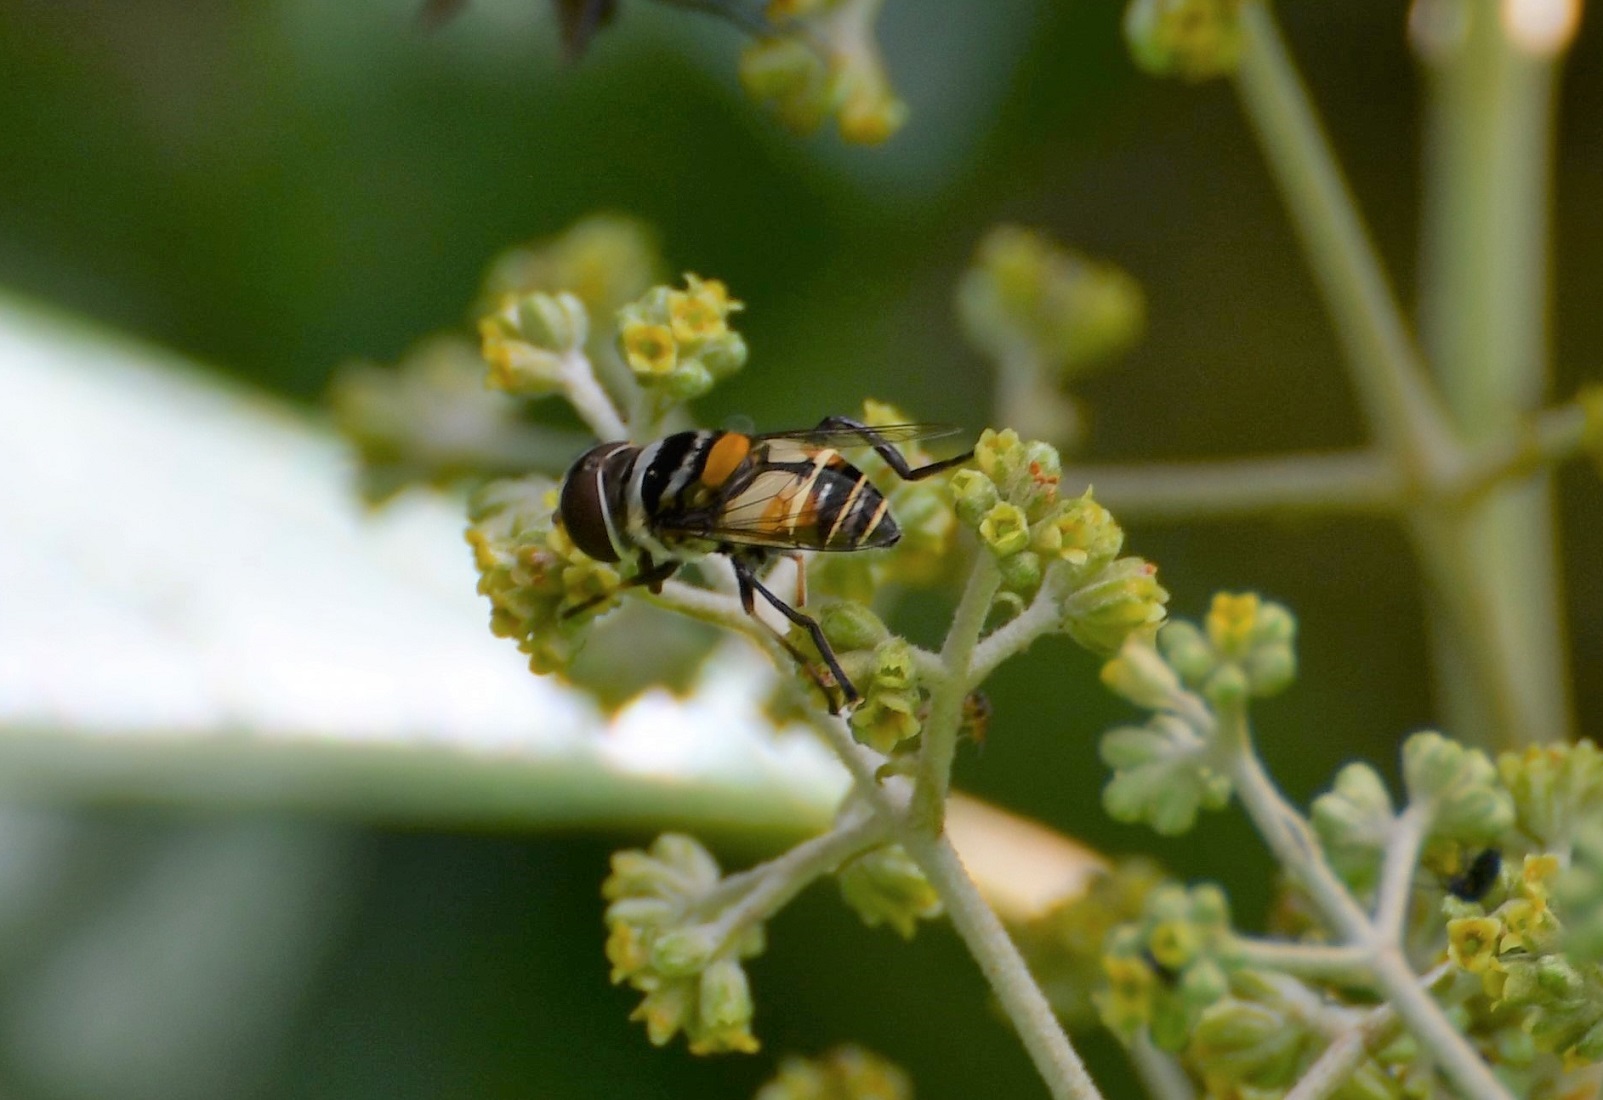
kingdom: Animalia
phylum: Arthropoda
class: Insecta
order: Diptera
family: Syrphidae
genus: Palpada
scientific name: Palpada agrorum
